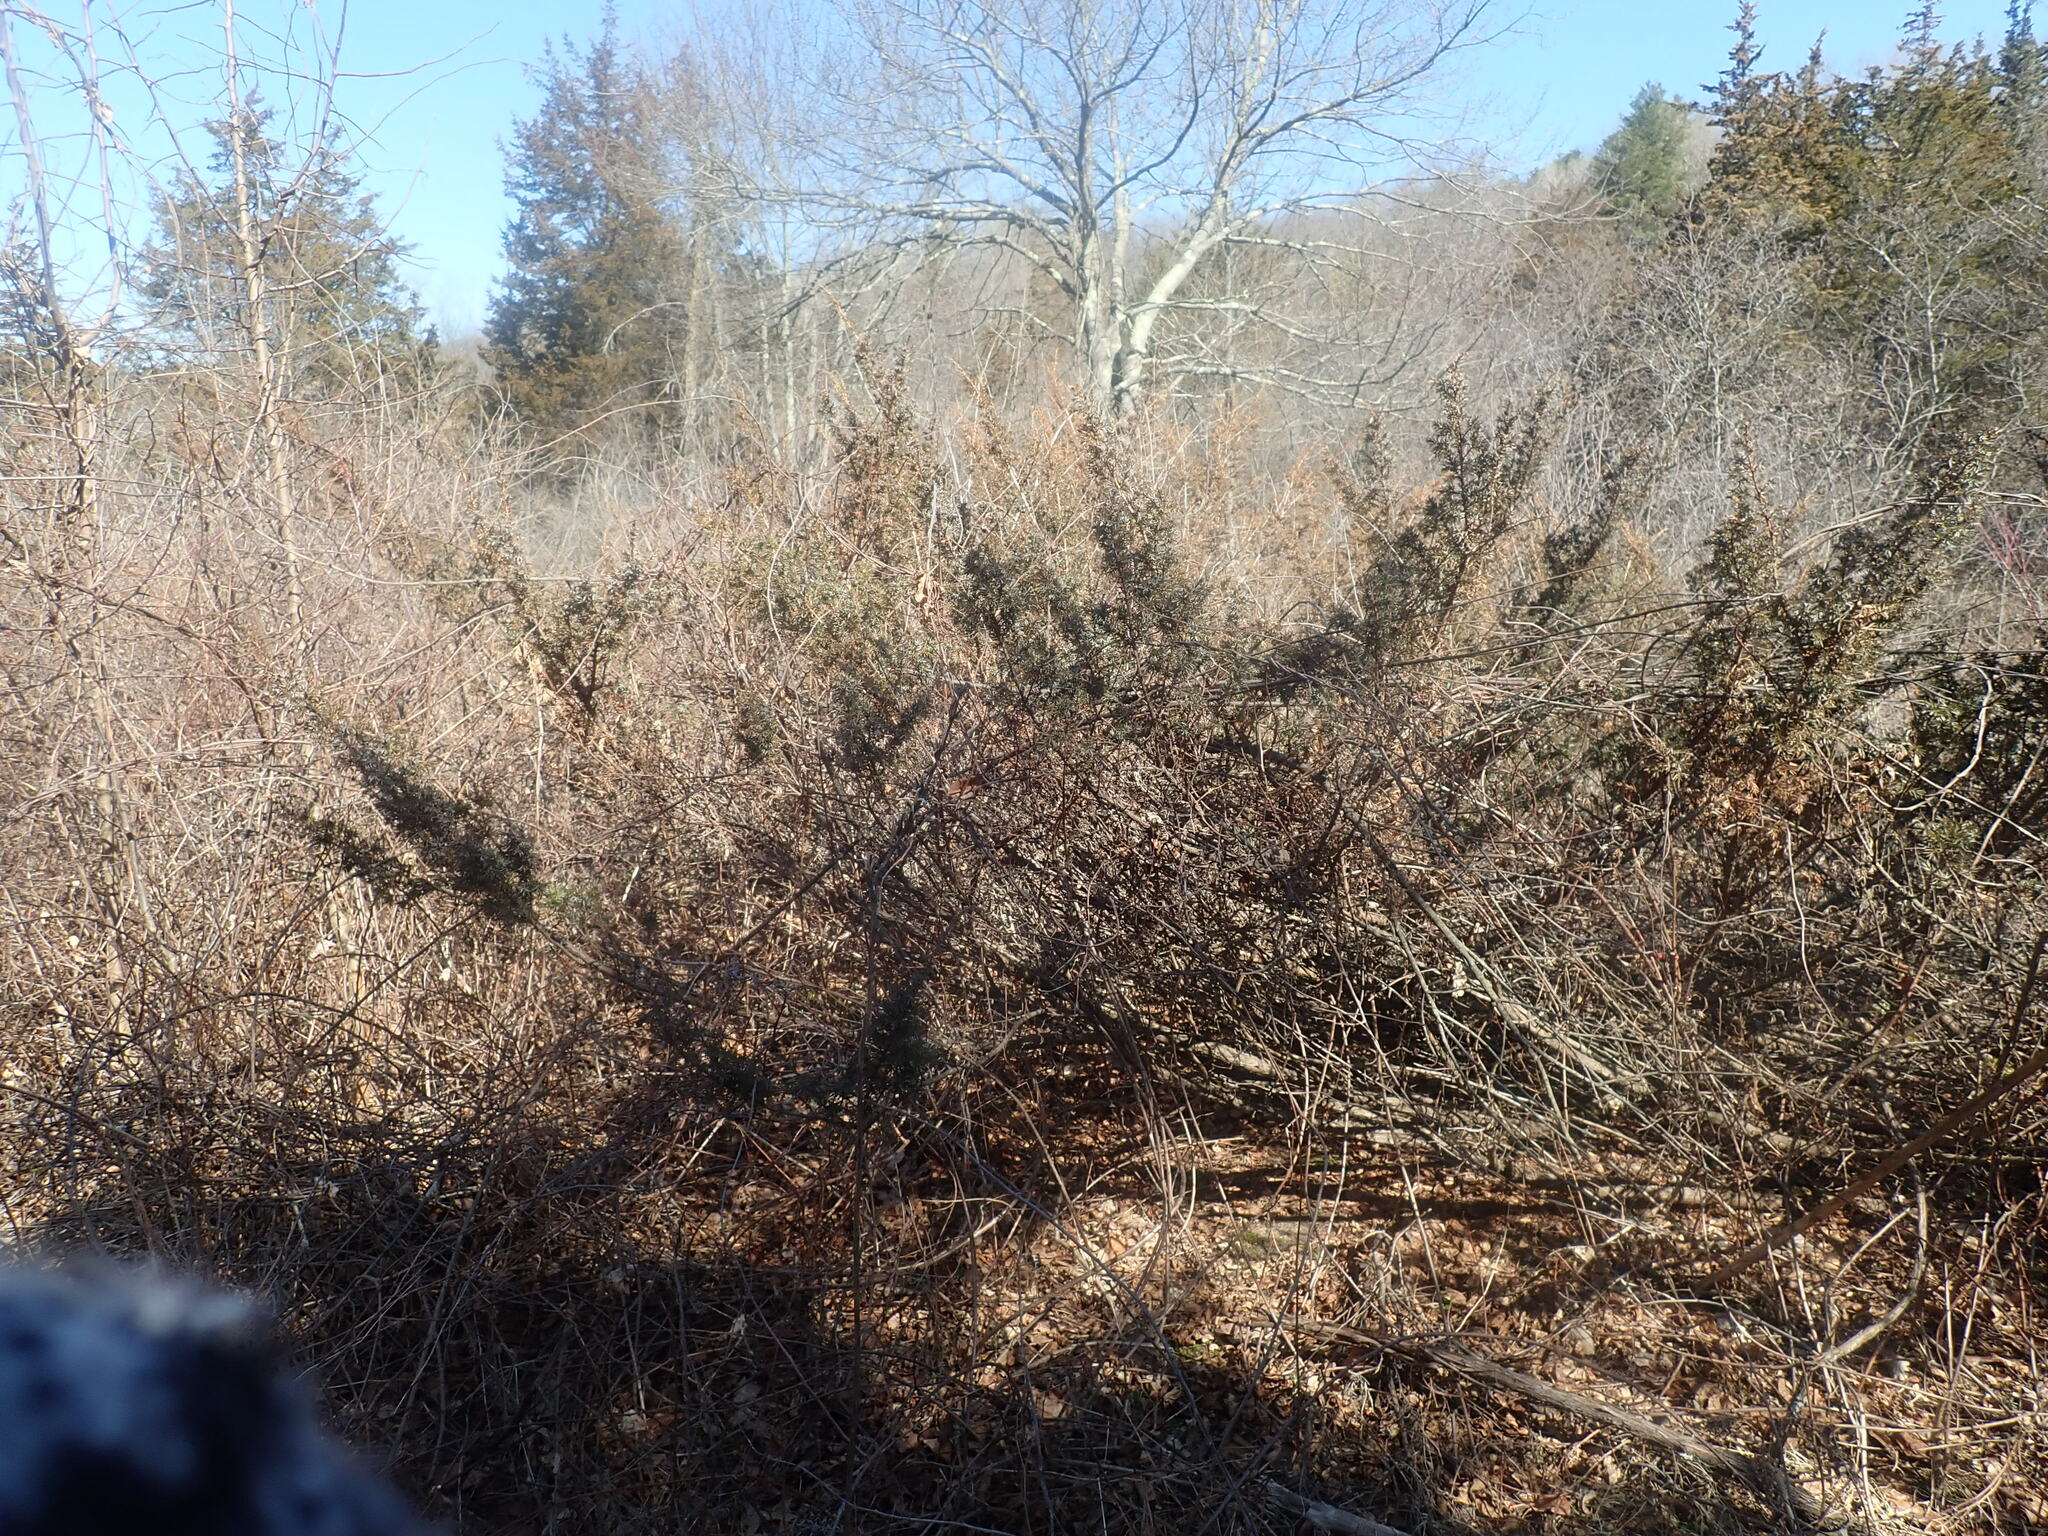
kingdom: Plantae
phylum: Tracheophyta
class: Pinopsida
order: Pinales
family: Cupressaceae
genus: Juniperus
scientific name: Juniperus communis
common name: Common juniper
